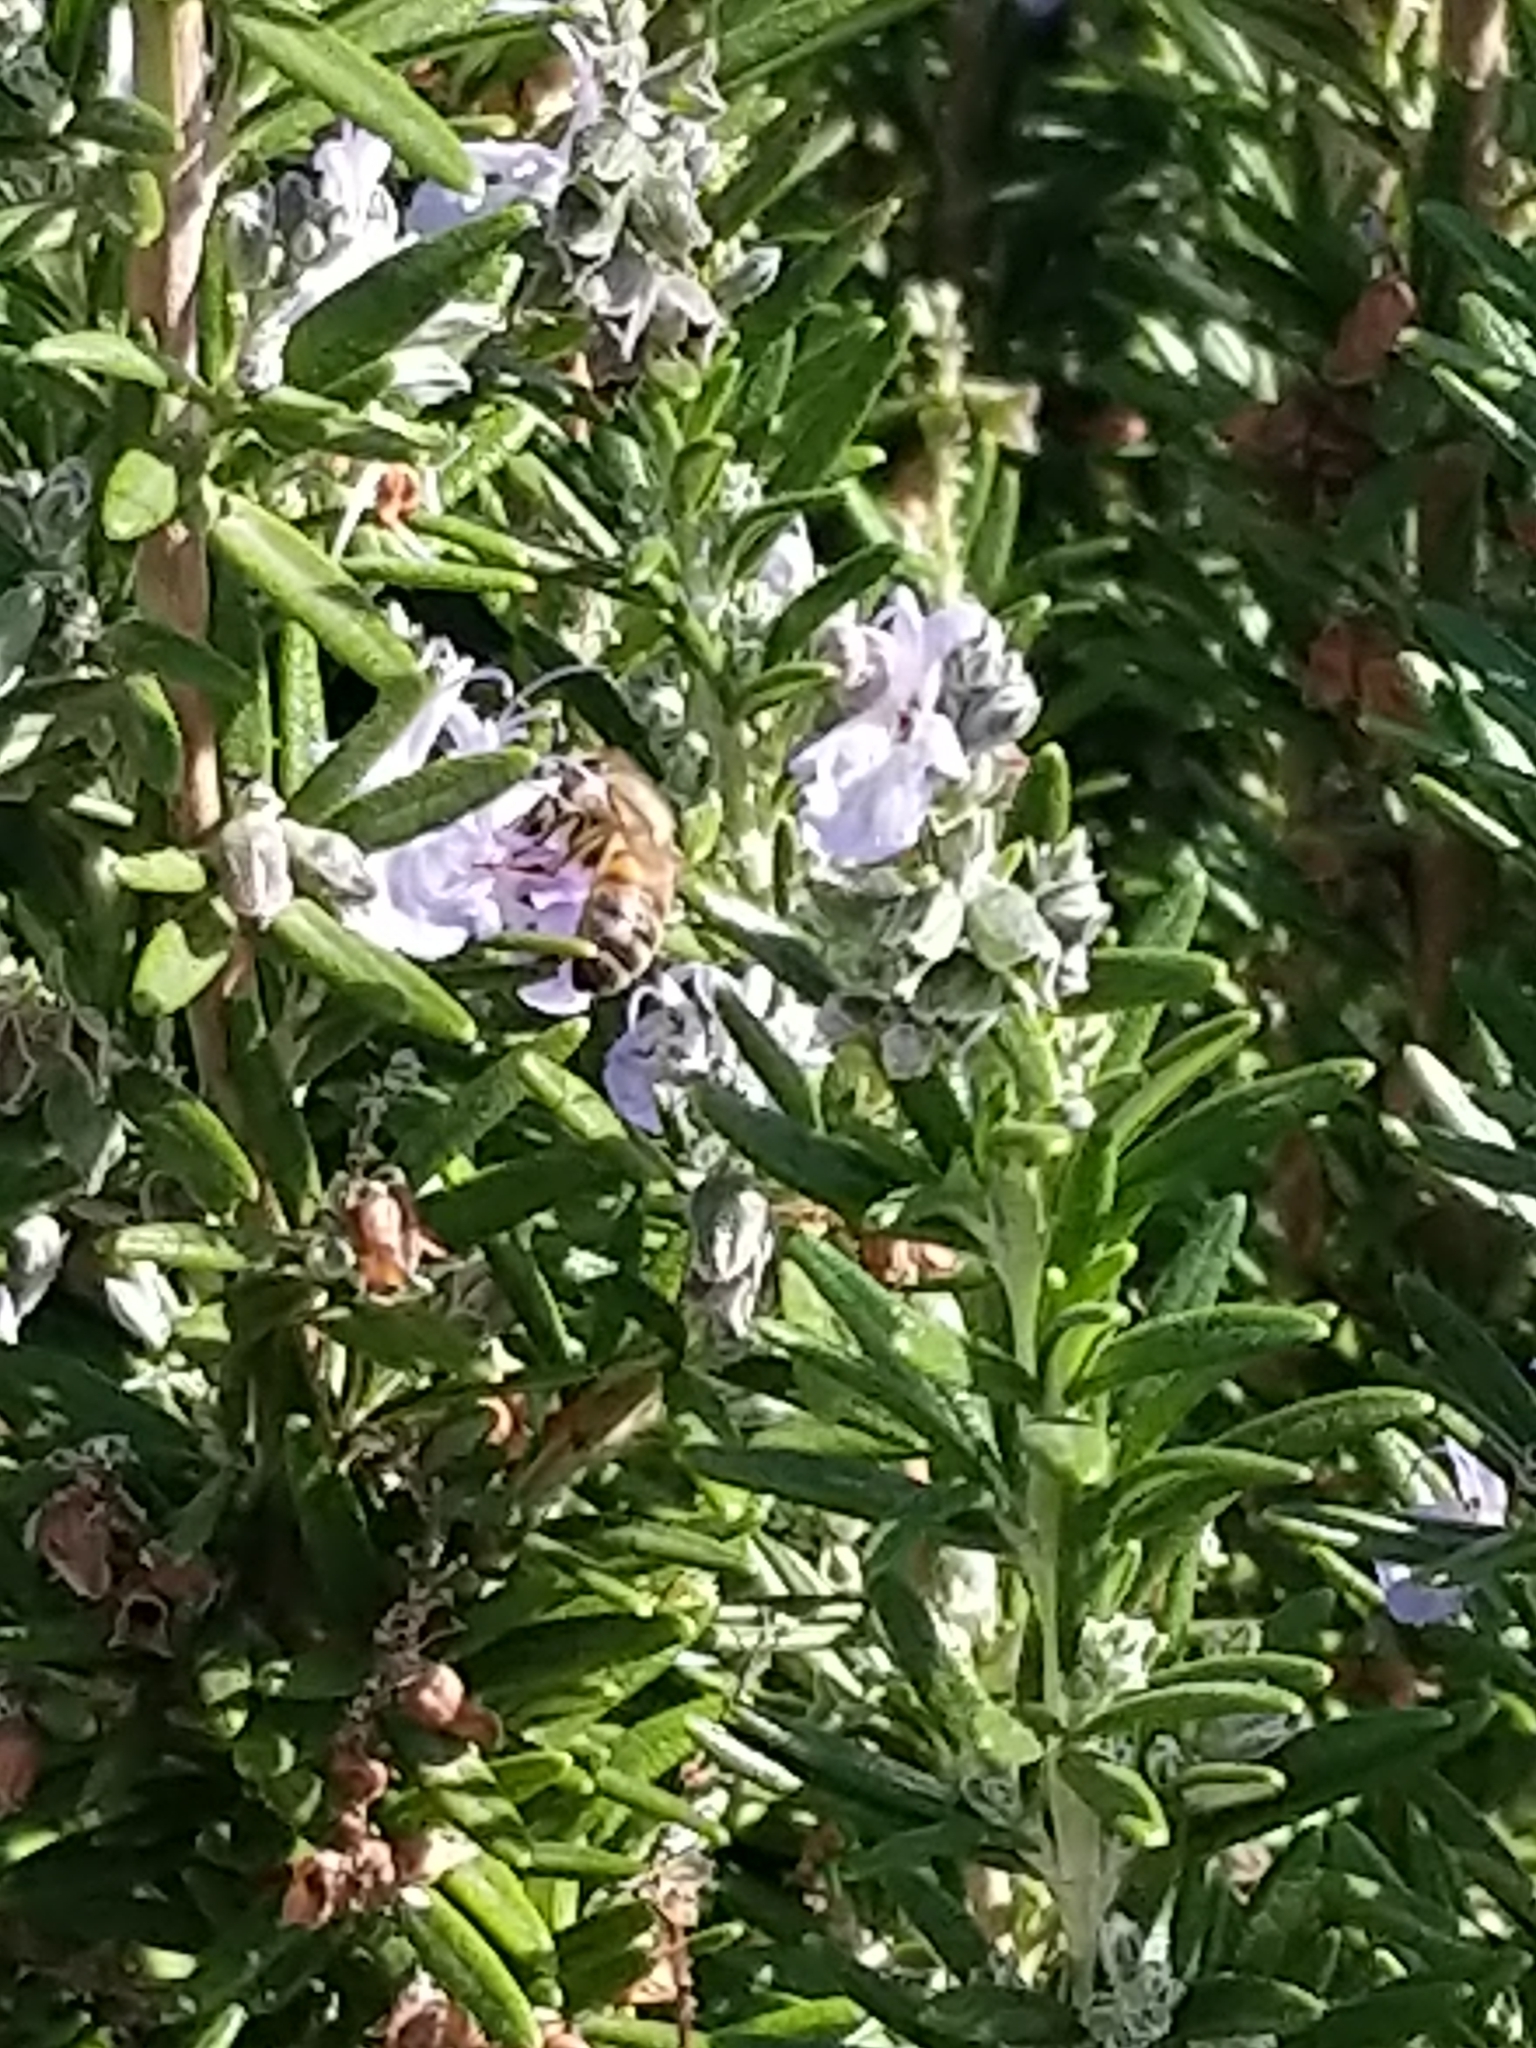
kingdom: Animalia
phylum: Arthropoda
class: Insecta
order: Hymenoptera
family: Apidae
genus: Apis
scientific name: Apis mellifera
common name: Honey bee
